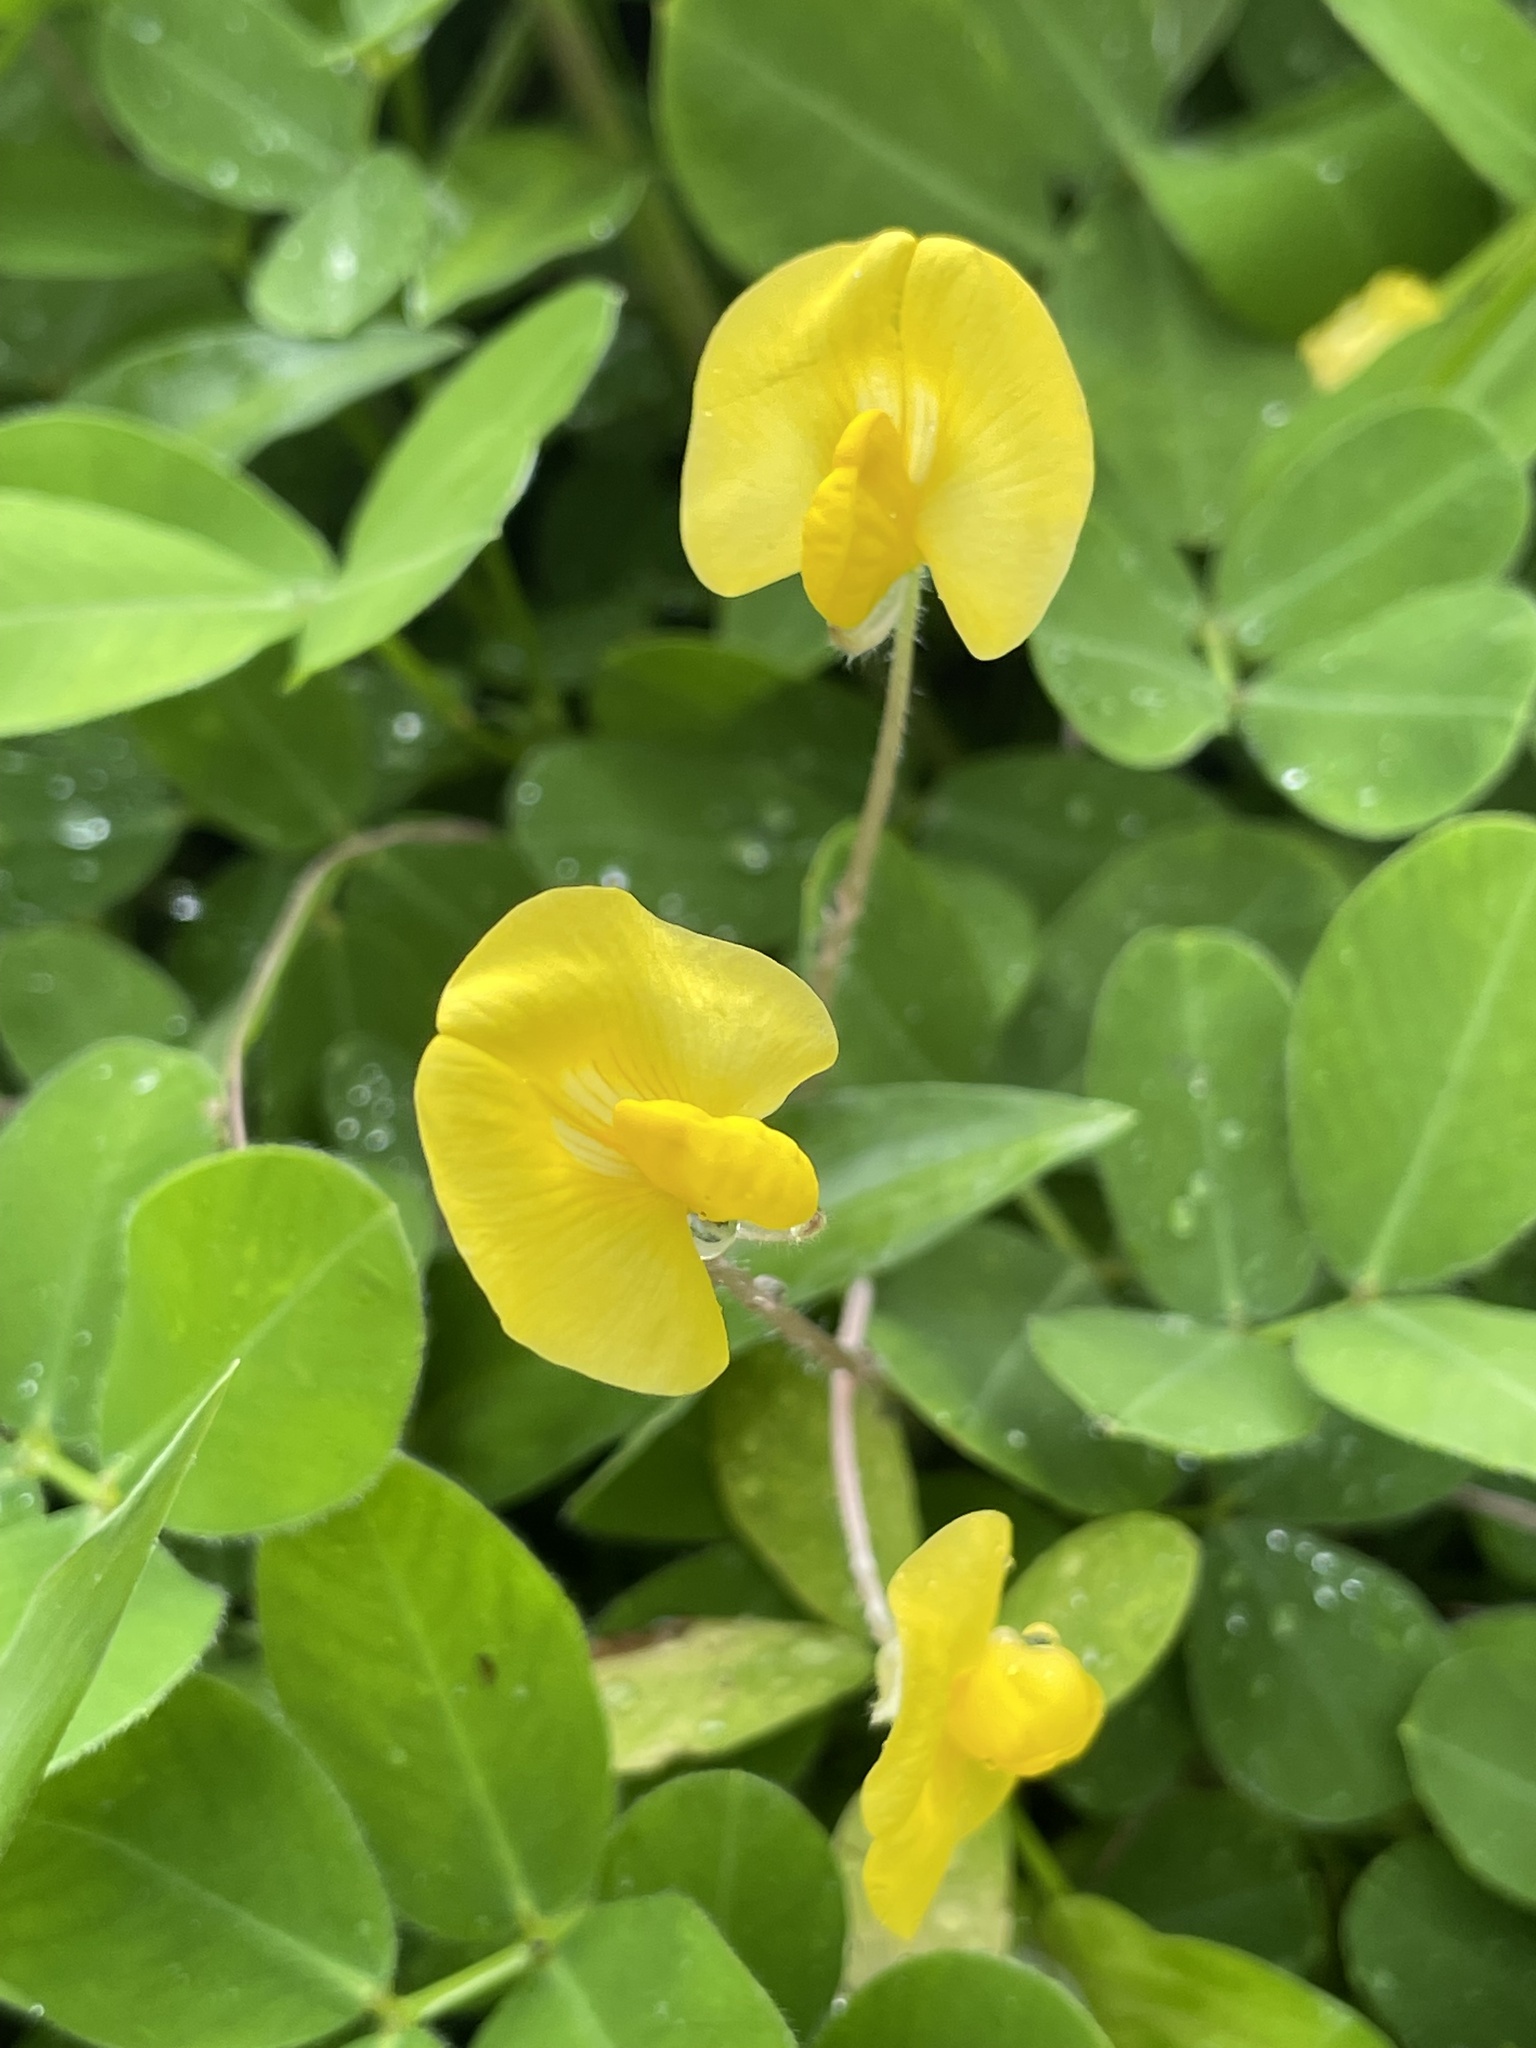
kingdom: Plantae
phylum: Tracheophyta
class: Magnoliopsida
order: Fabales
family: Fabaceae
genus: Arachis
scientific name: Arachis pintoi
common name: Pinto peanut
